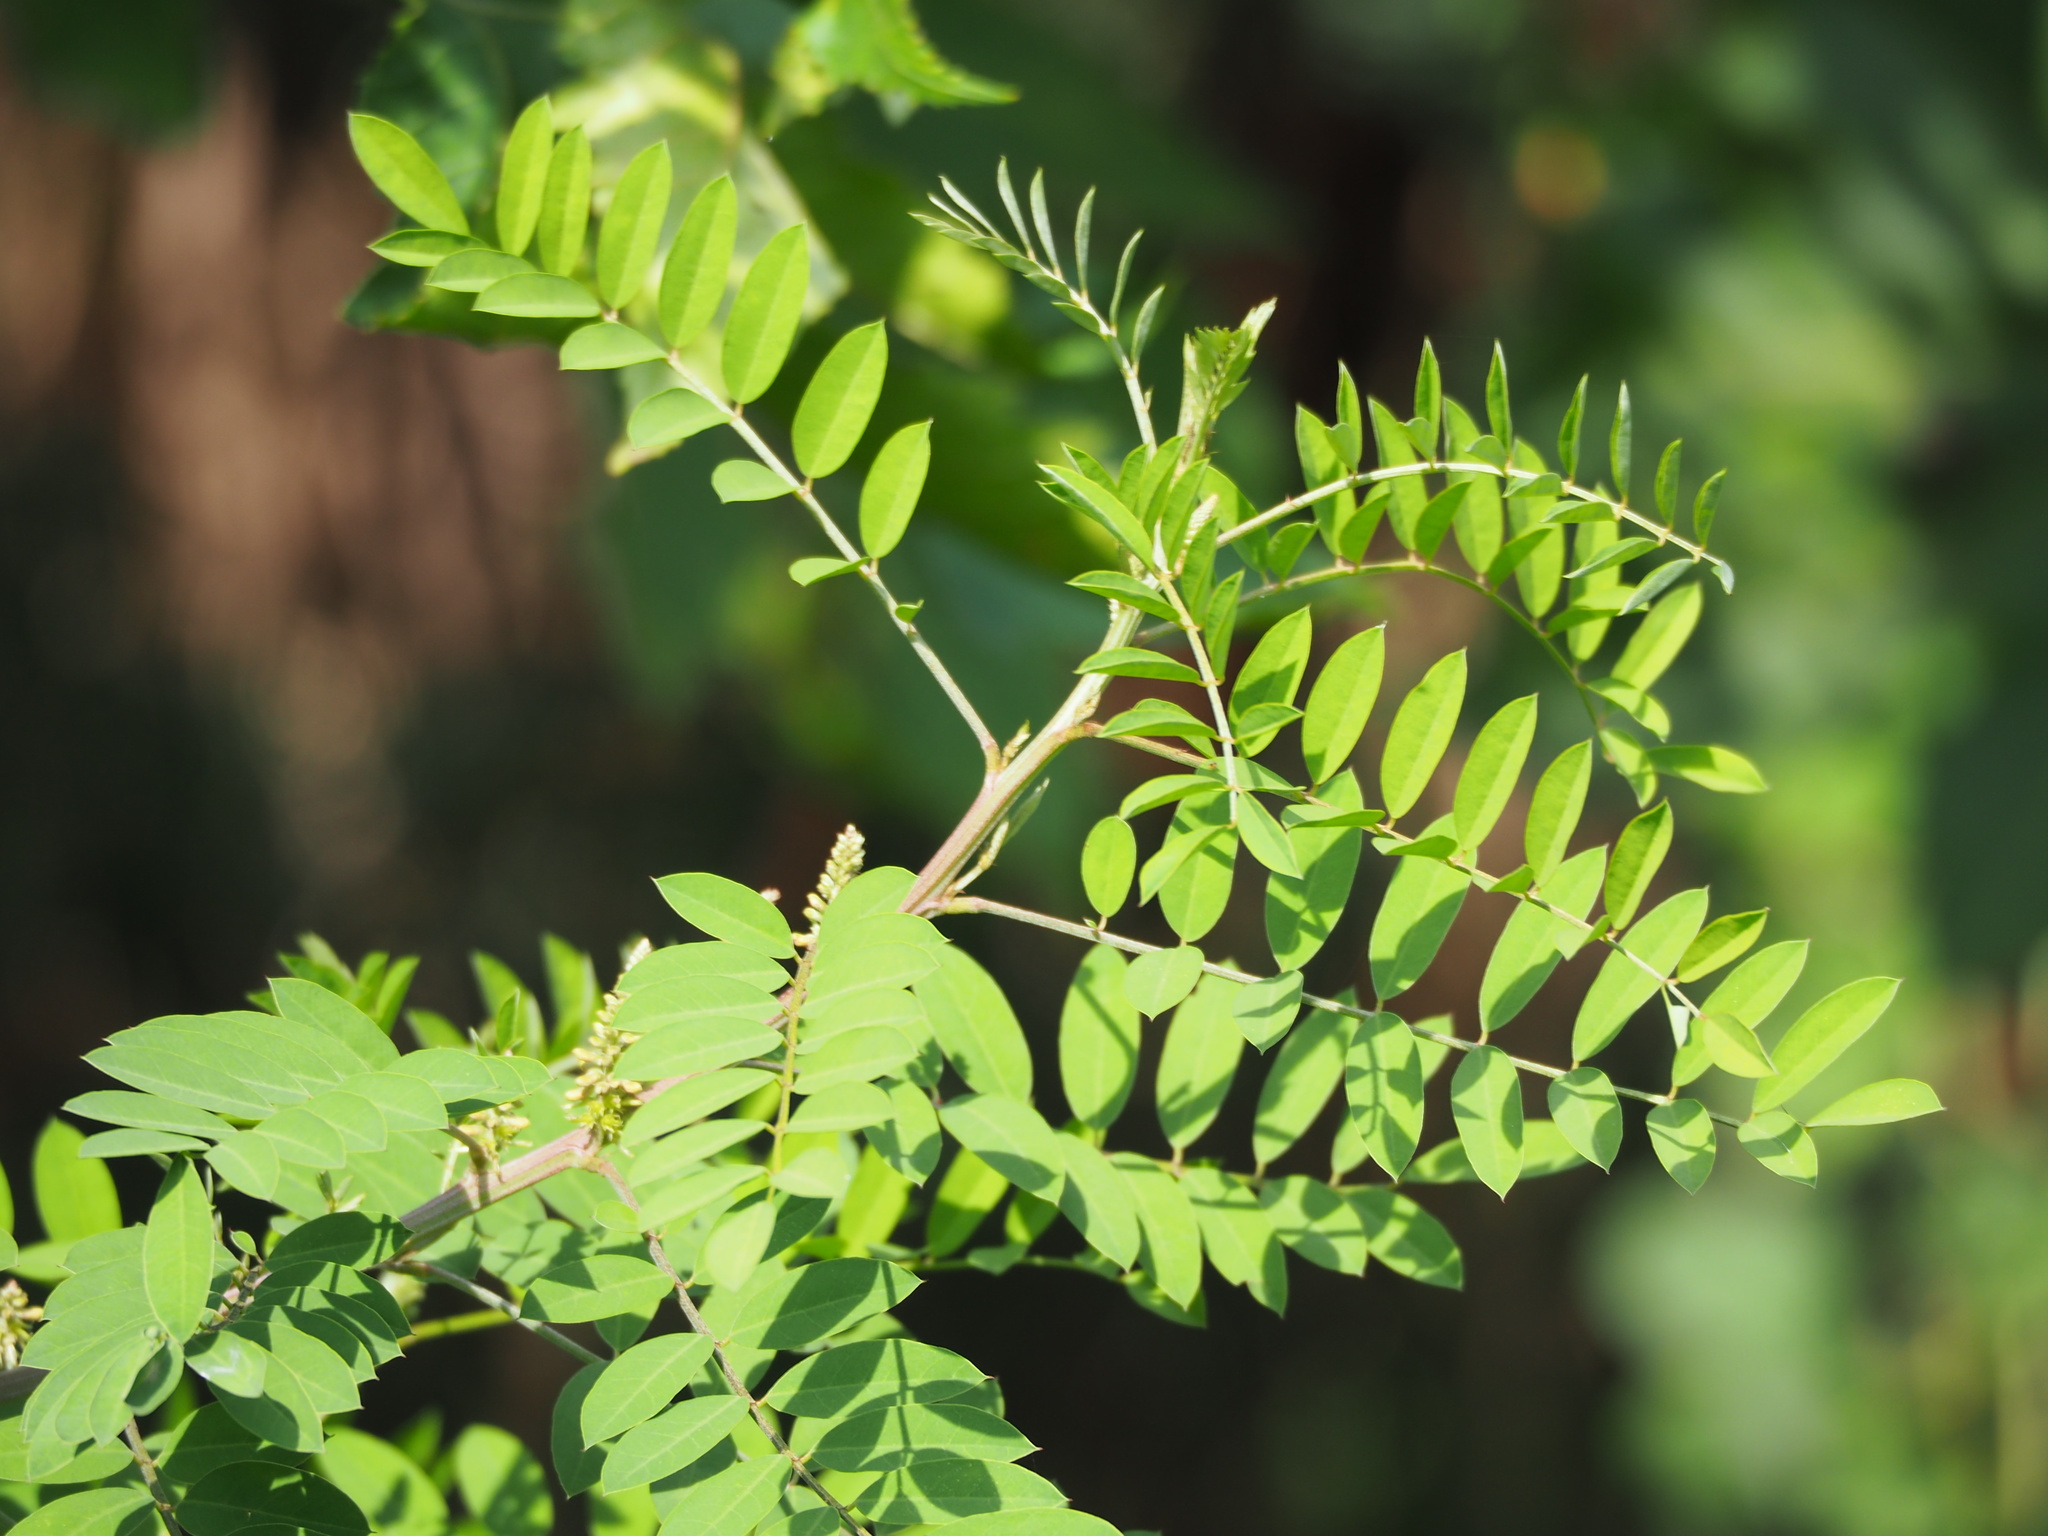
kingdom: Plantae
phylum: Tracheophyta
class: Magnoliopsida
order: Fabales
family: Fabaceae
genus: Indigofera
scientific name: Indigofera suffruticosa
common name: Anil de pasto
